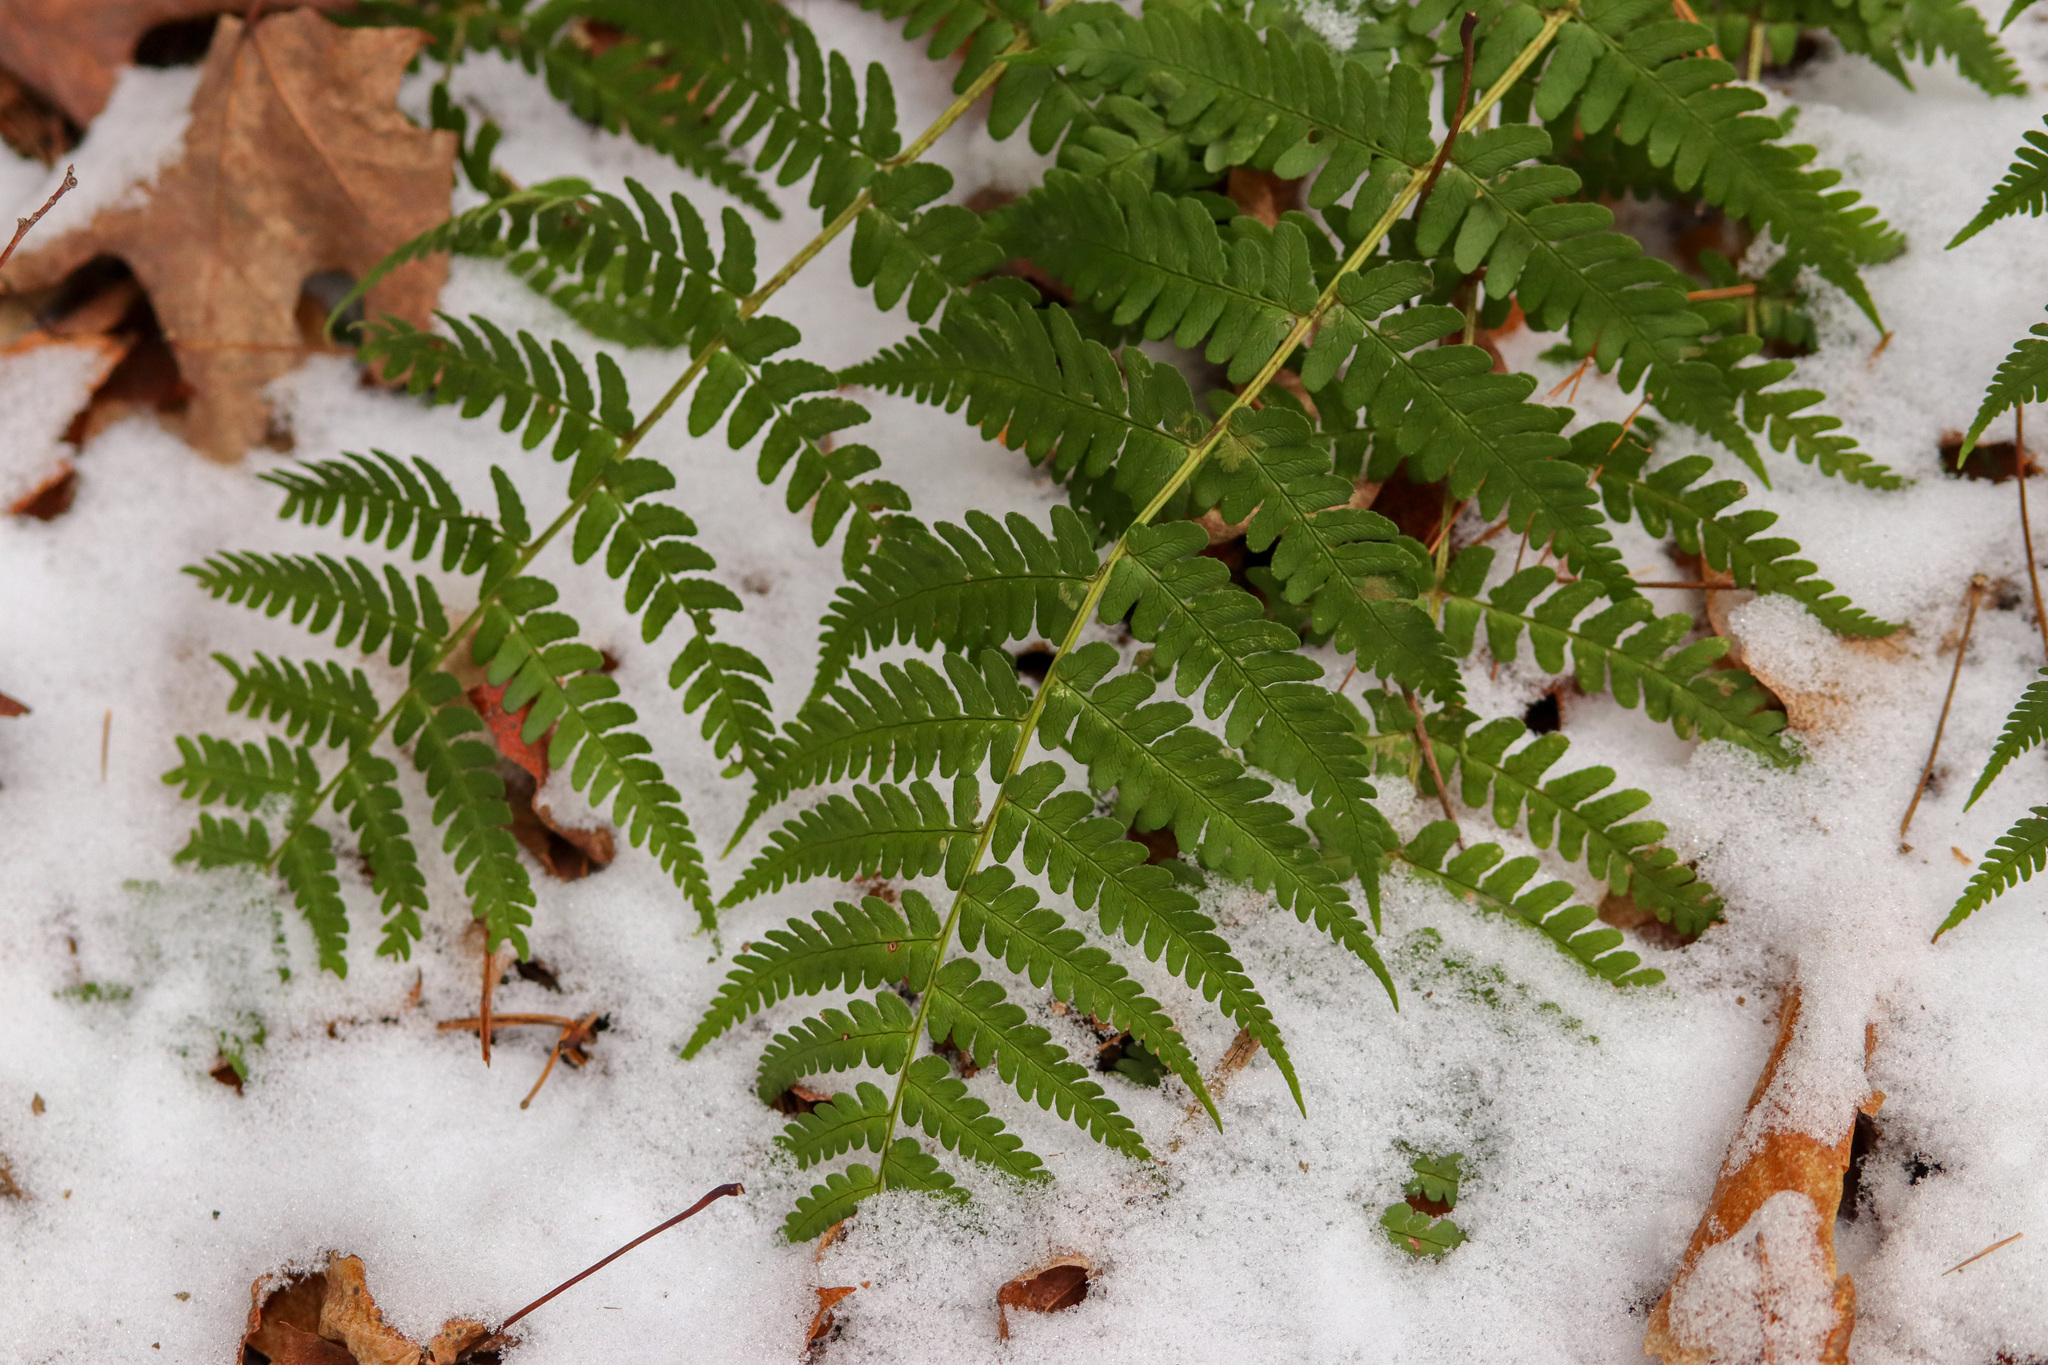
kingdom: Plantae
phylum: Tracheophyta
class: Polypodiopsida
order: Polypodiales
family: Dryopteridaceae
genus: Dryopteris
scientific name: Dryopteris marginalis
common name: Marginal wood fern
